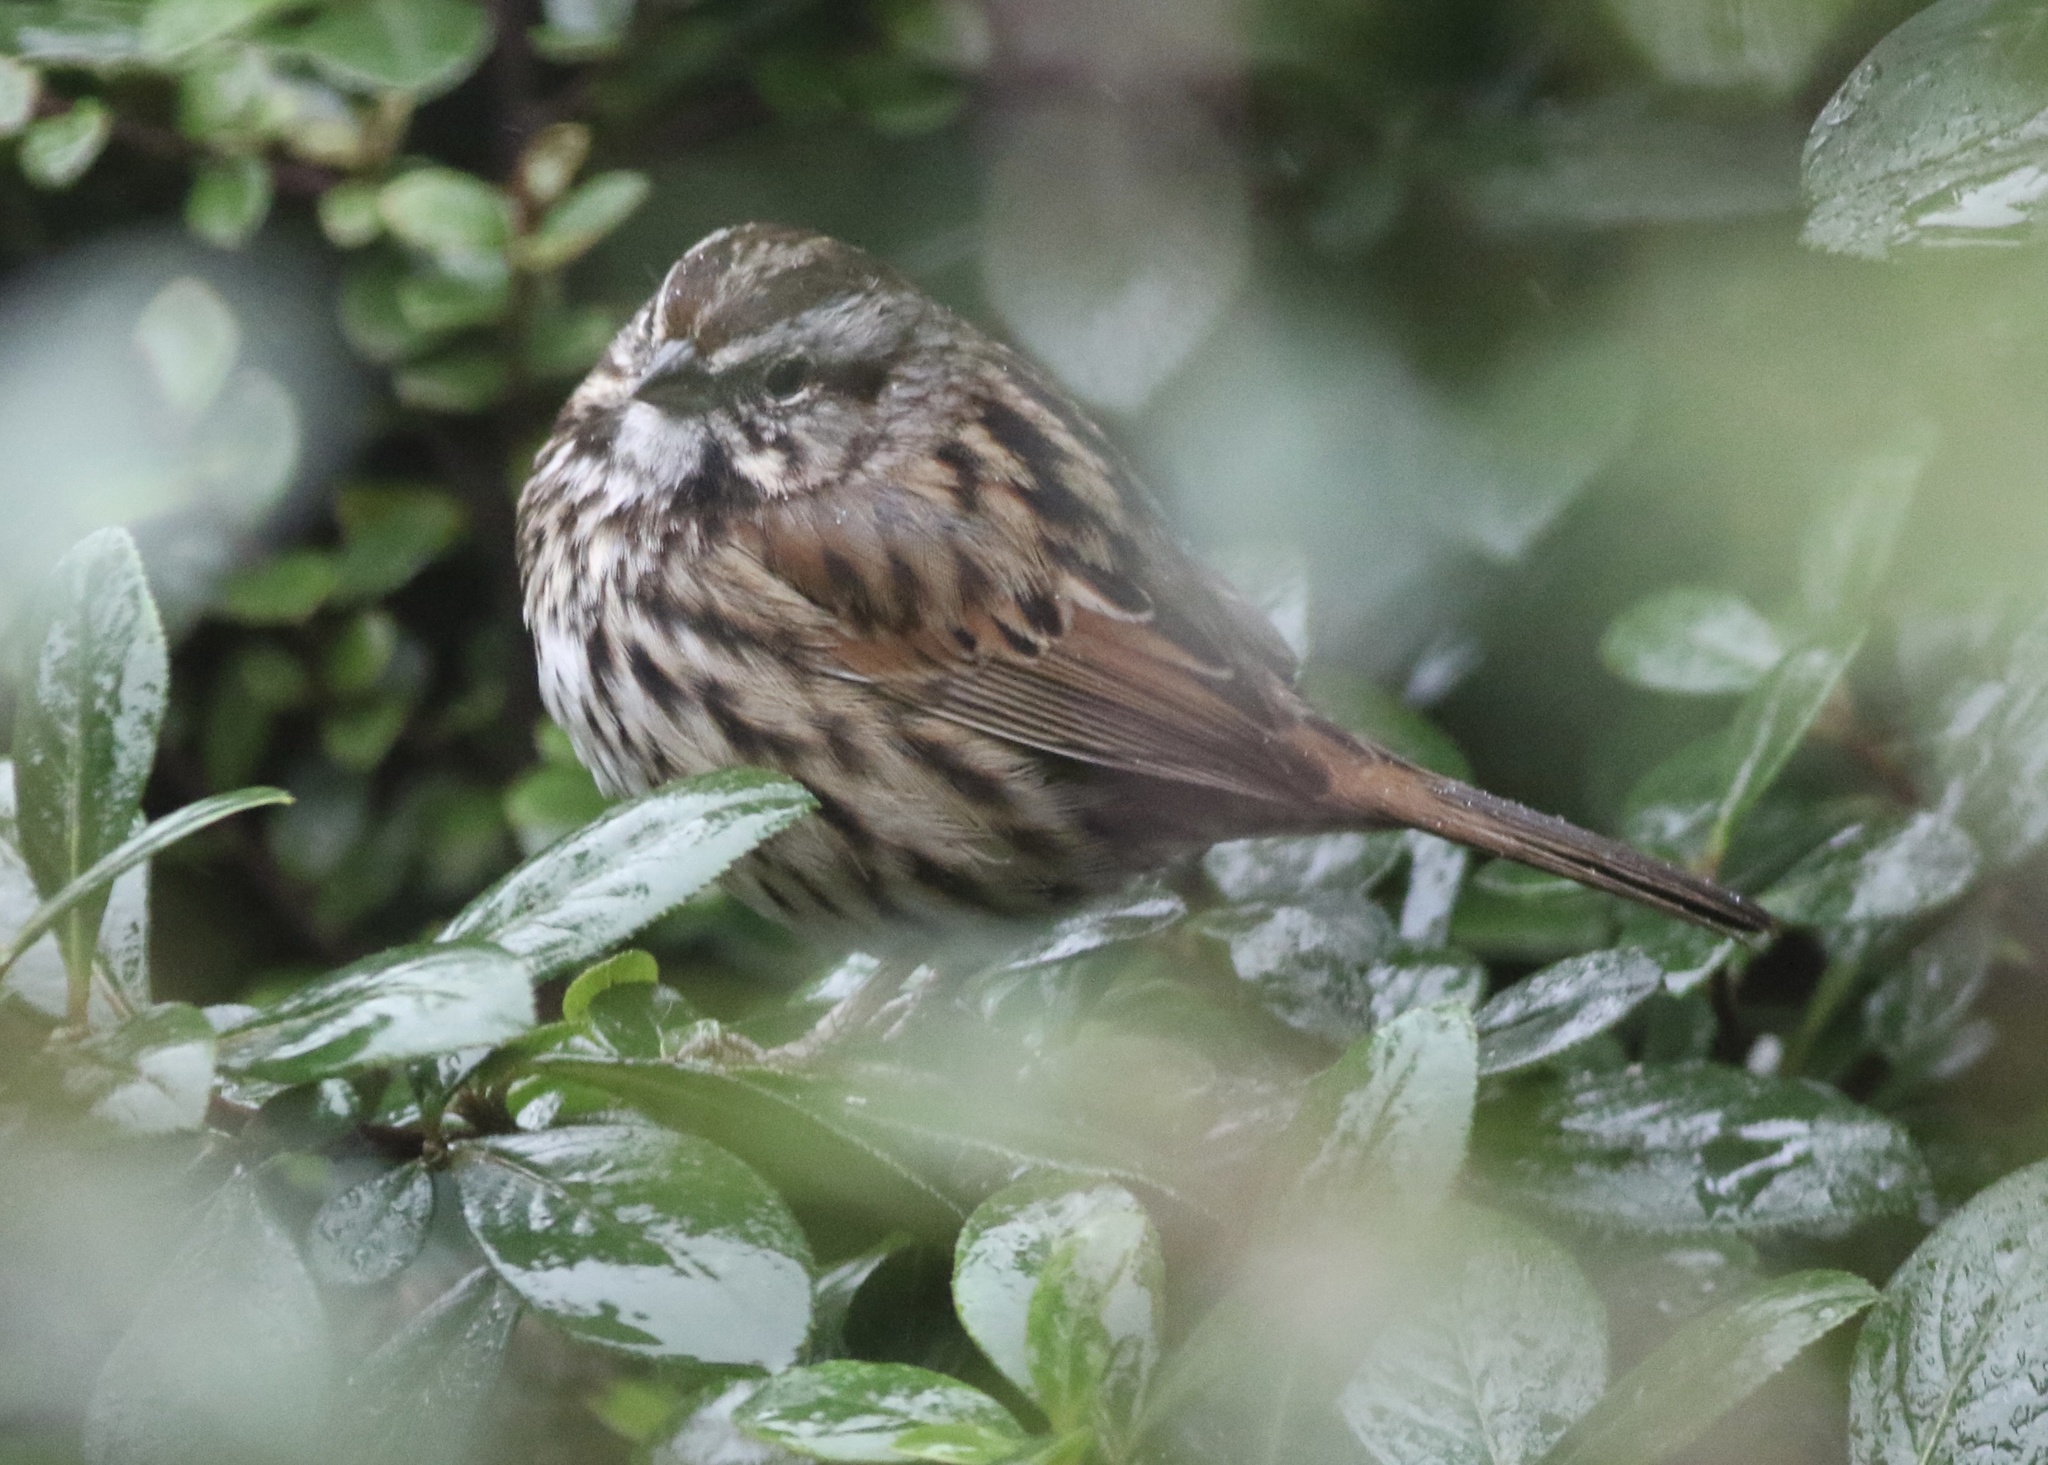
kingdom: Animalia
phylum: Chordata
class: Aves
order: Passeriformes
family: Passerellidae
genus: Melospiza
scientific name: Melospiza melodia
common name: Song sparrow
